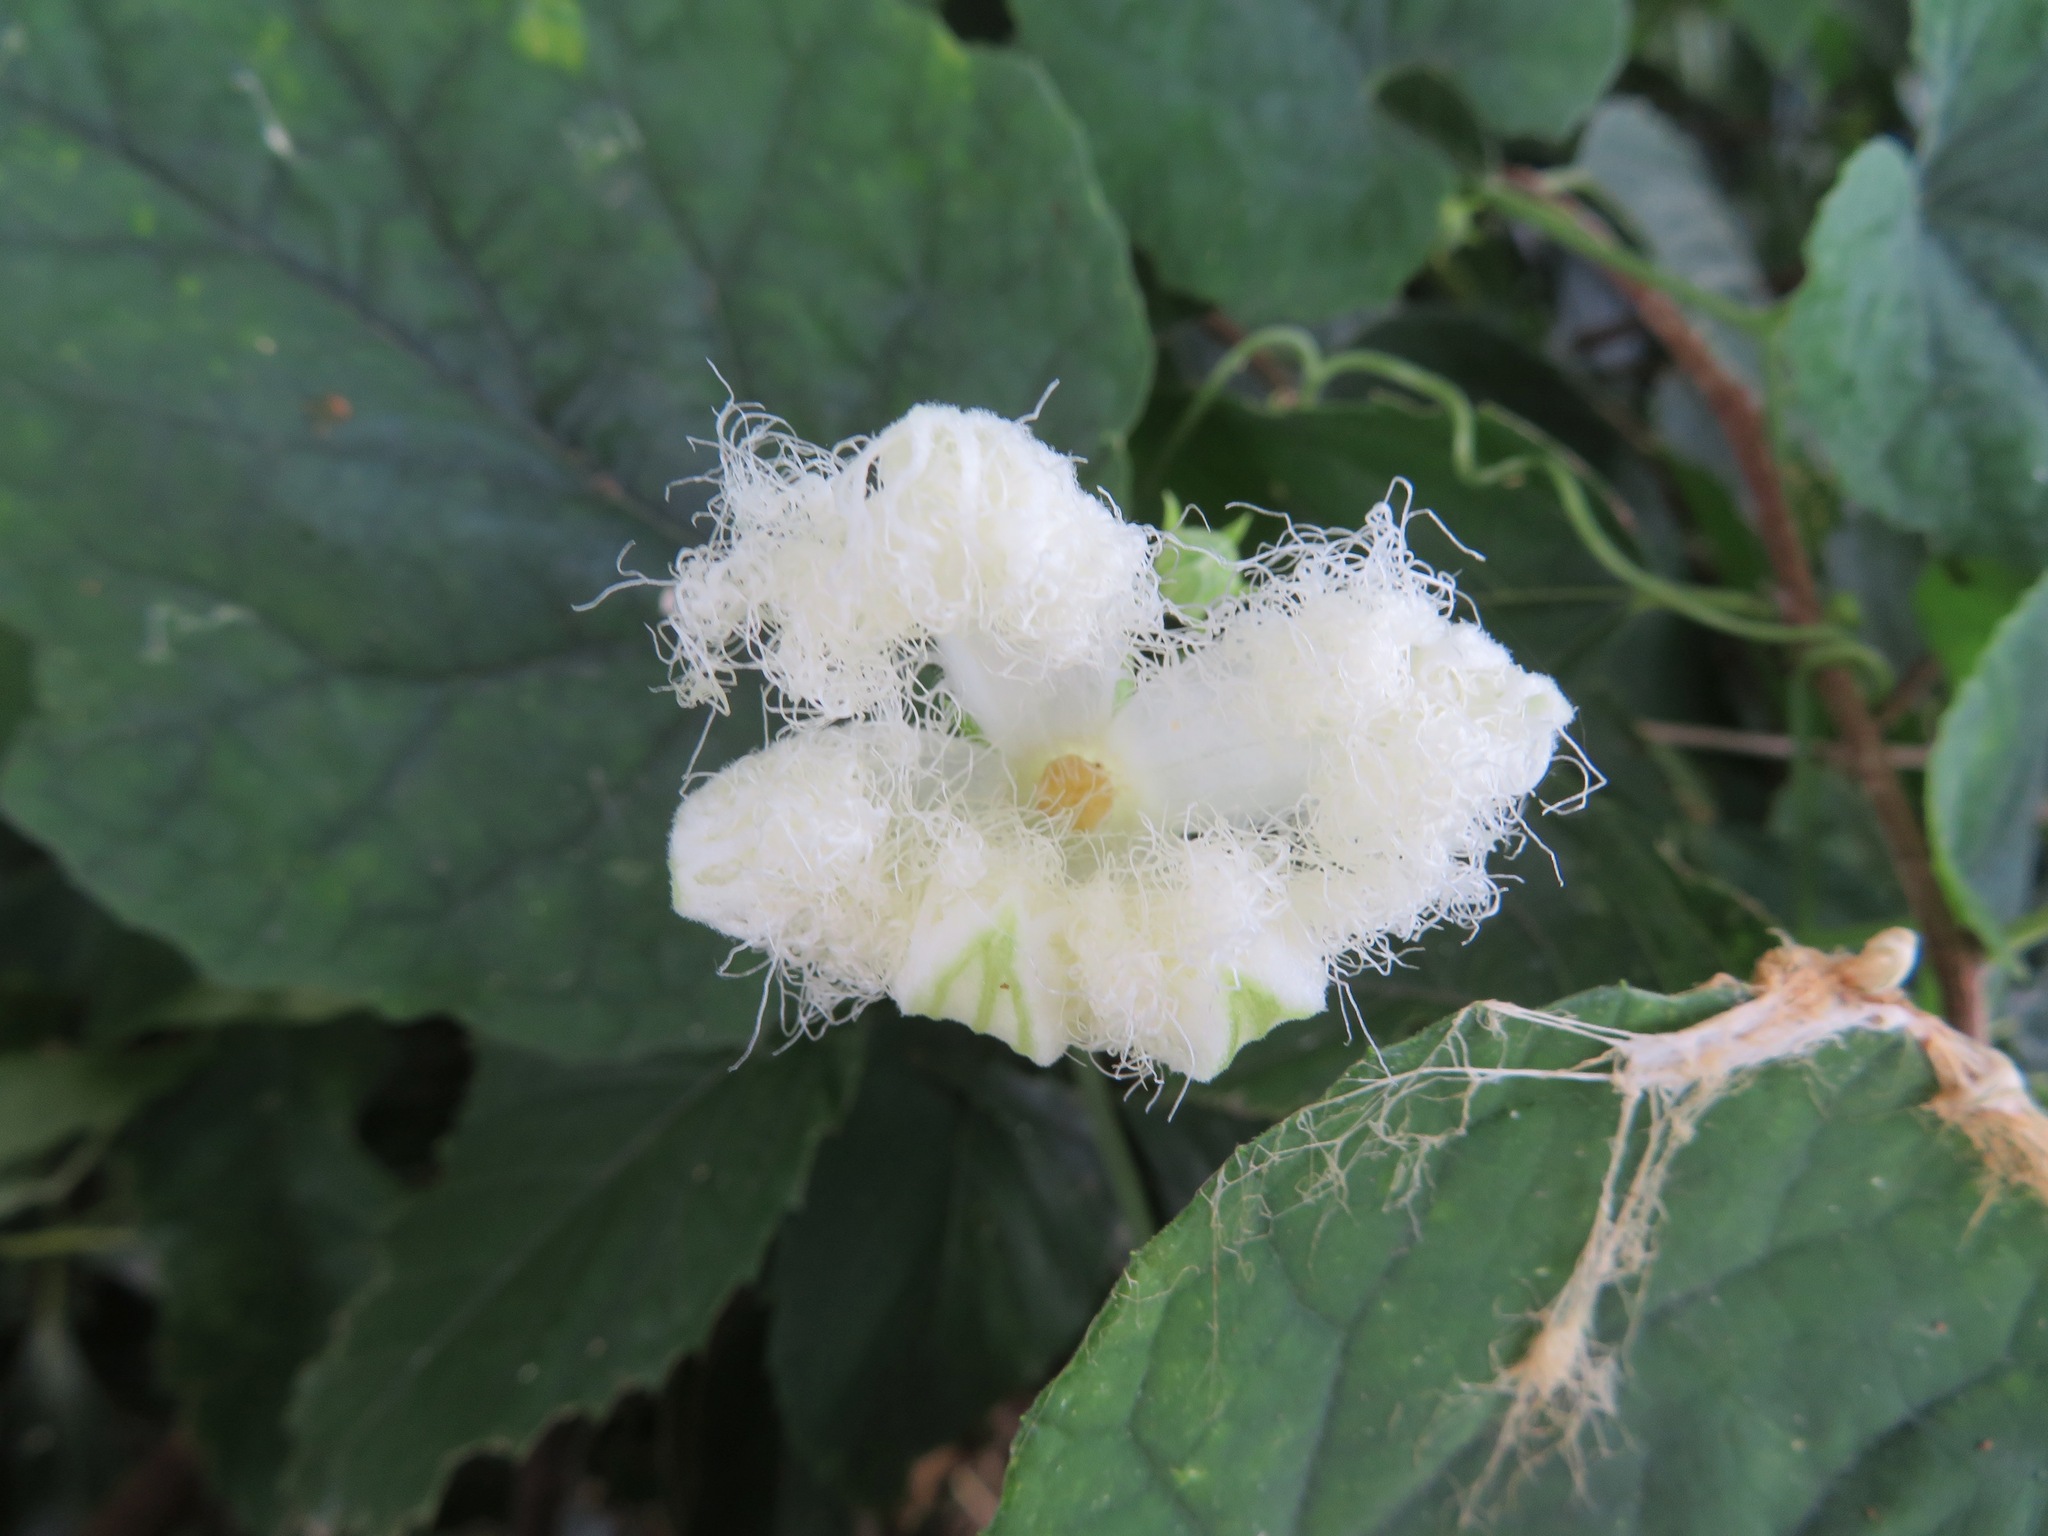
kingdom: Plantae
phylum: Tracheophyta
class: Magnoliopsida
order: Cucurbitales
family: Cucurbitaceae
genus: Trichosanthes
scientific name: Trichosanthes cucumeroides
